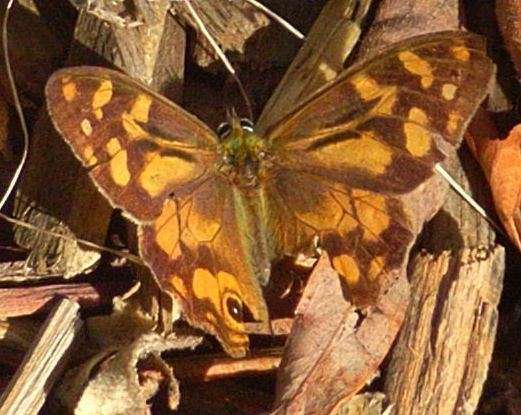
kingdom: Animalia
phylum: Arthropoda
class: Insecta
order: Lepidoptera
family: Nymphalidae
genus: Heteronympha
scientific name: Heteronympha banksii
